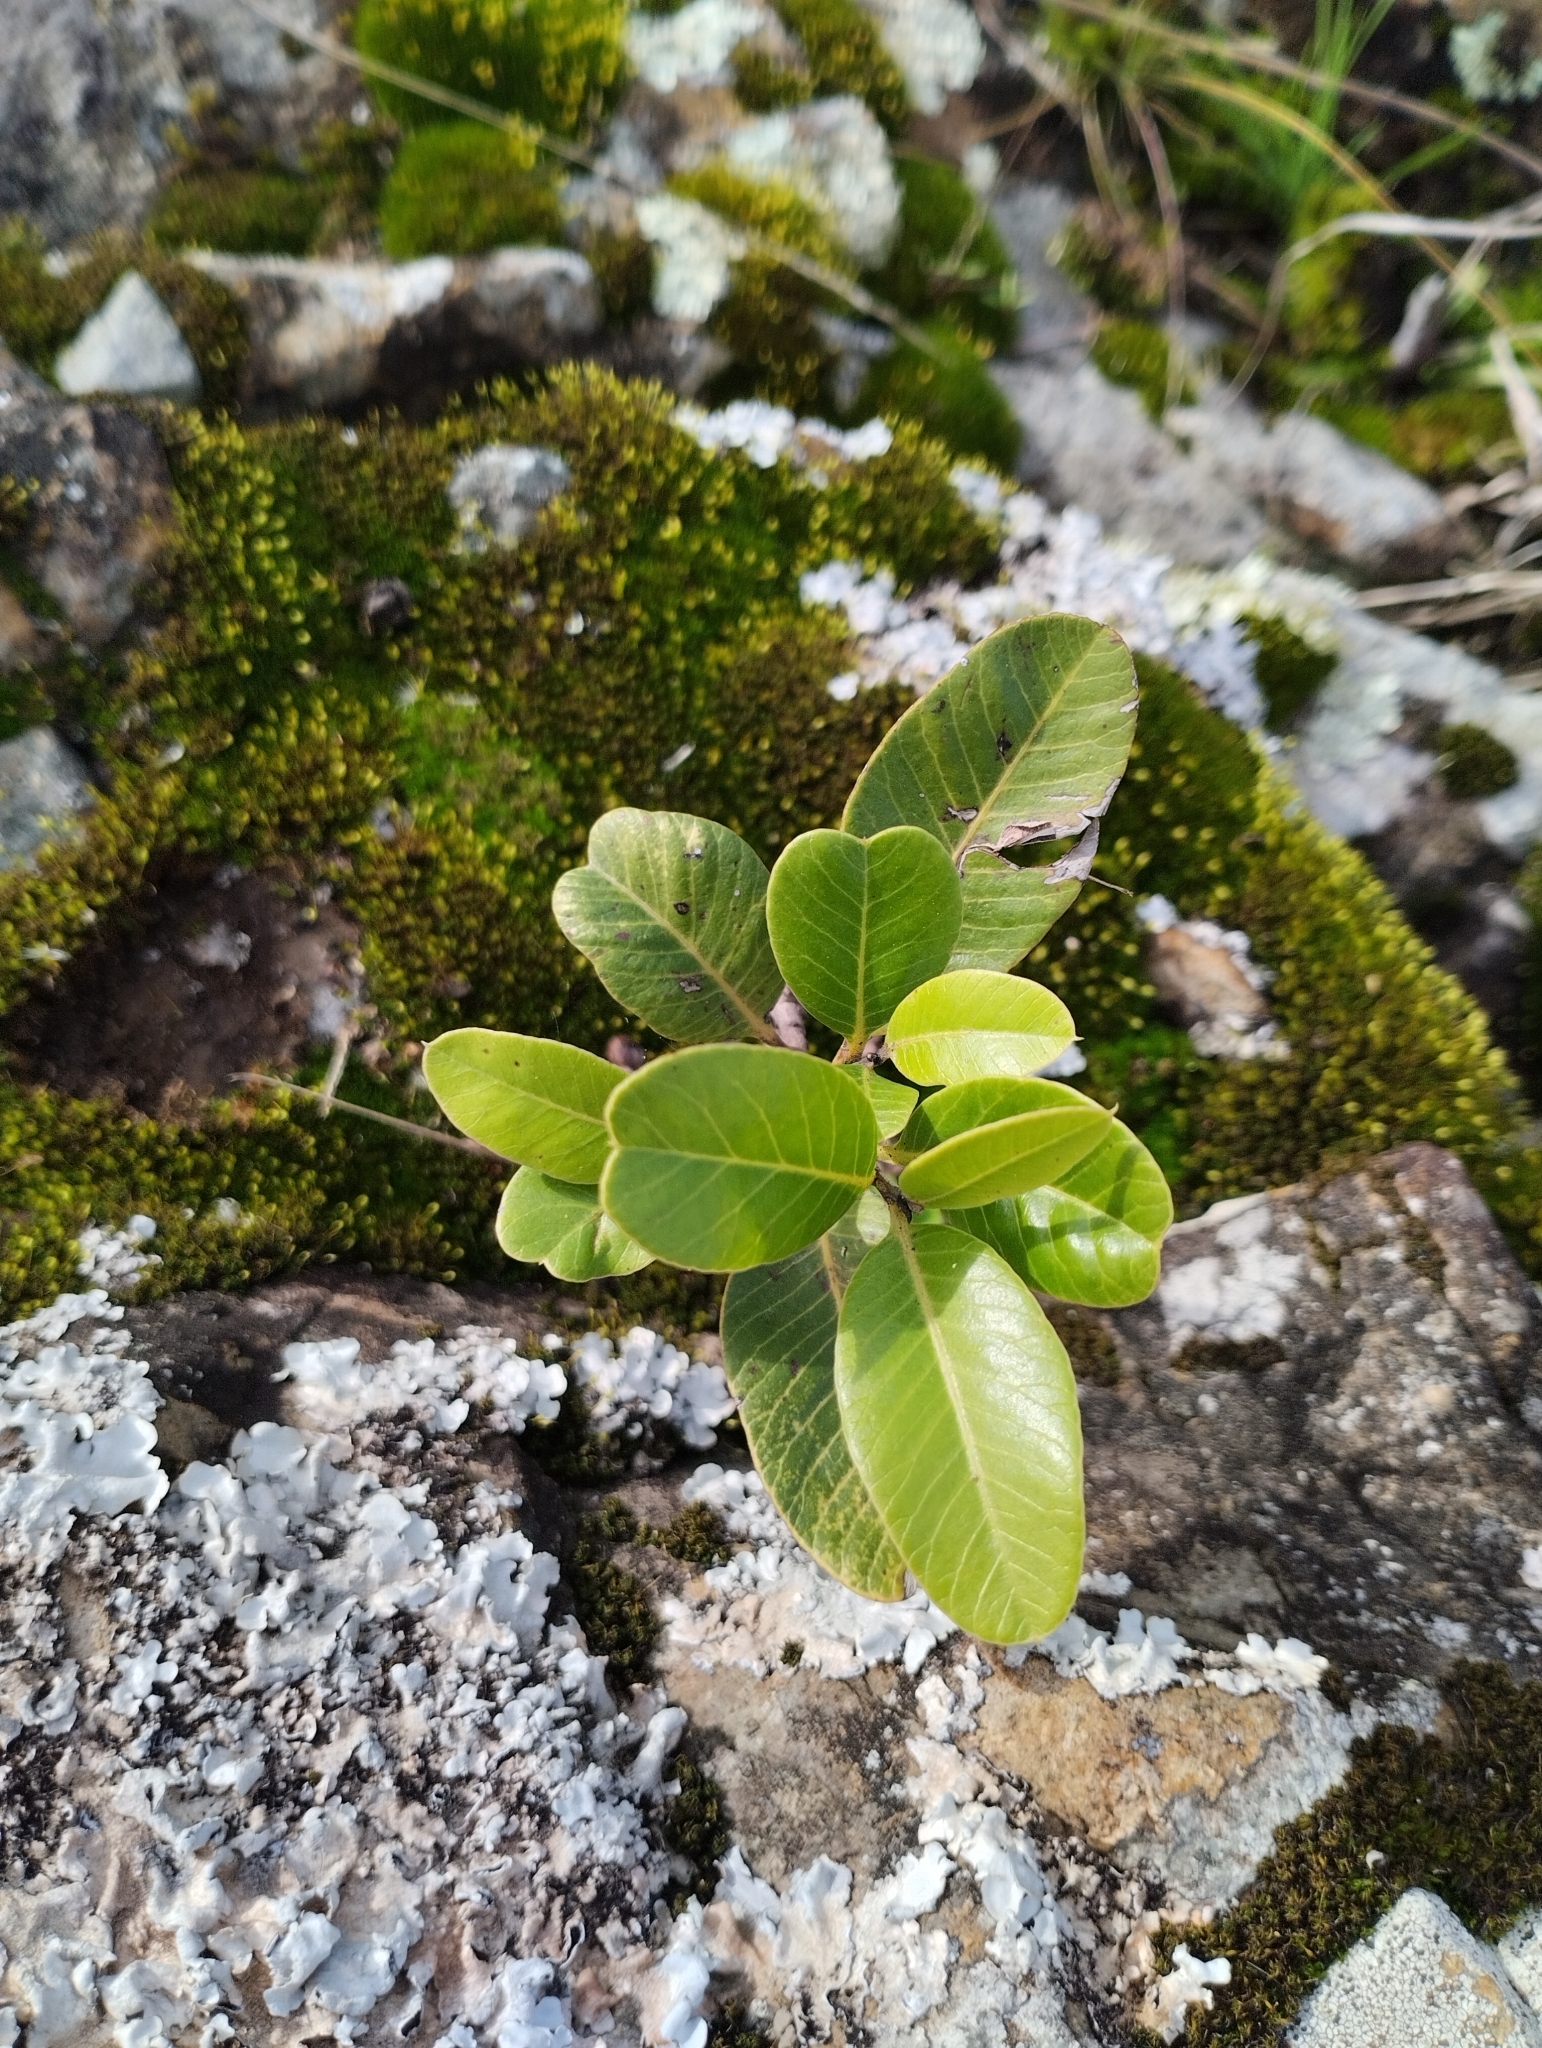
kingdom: Plantae
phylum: Tracheophyta
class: Magnoliopsida
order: Sapindales
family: Anacardiaceae
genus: Lithraea
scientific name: Lithraea brasiliensis
